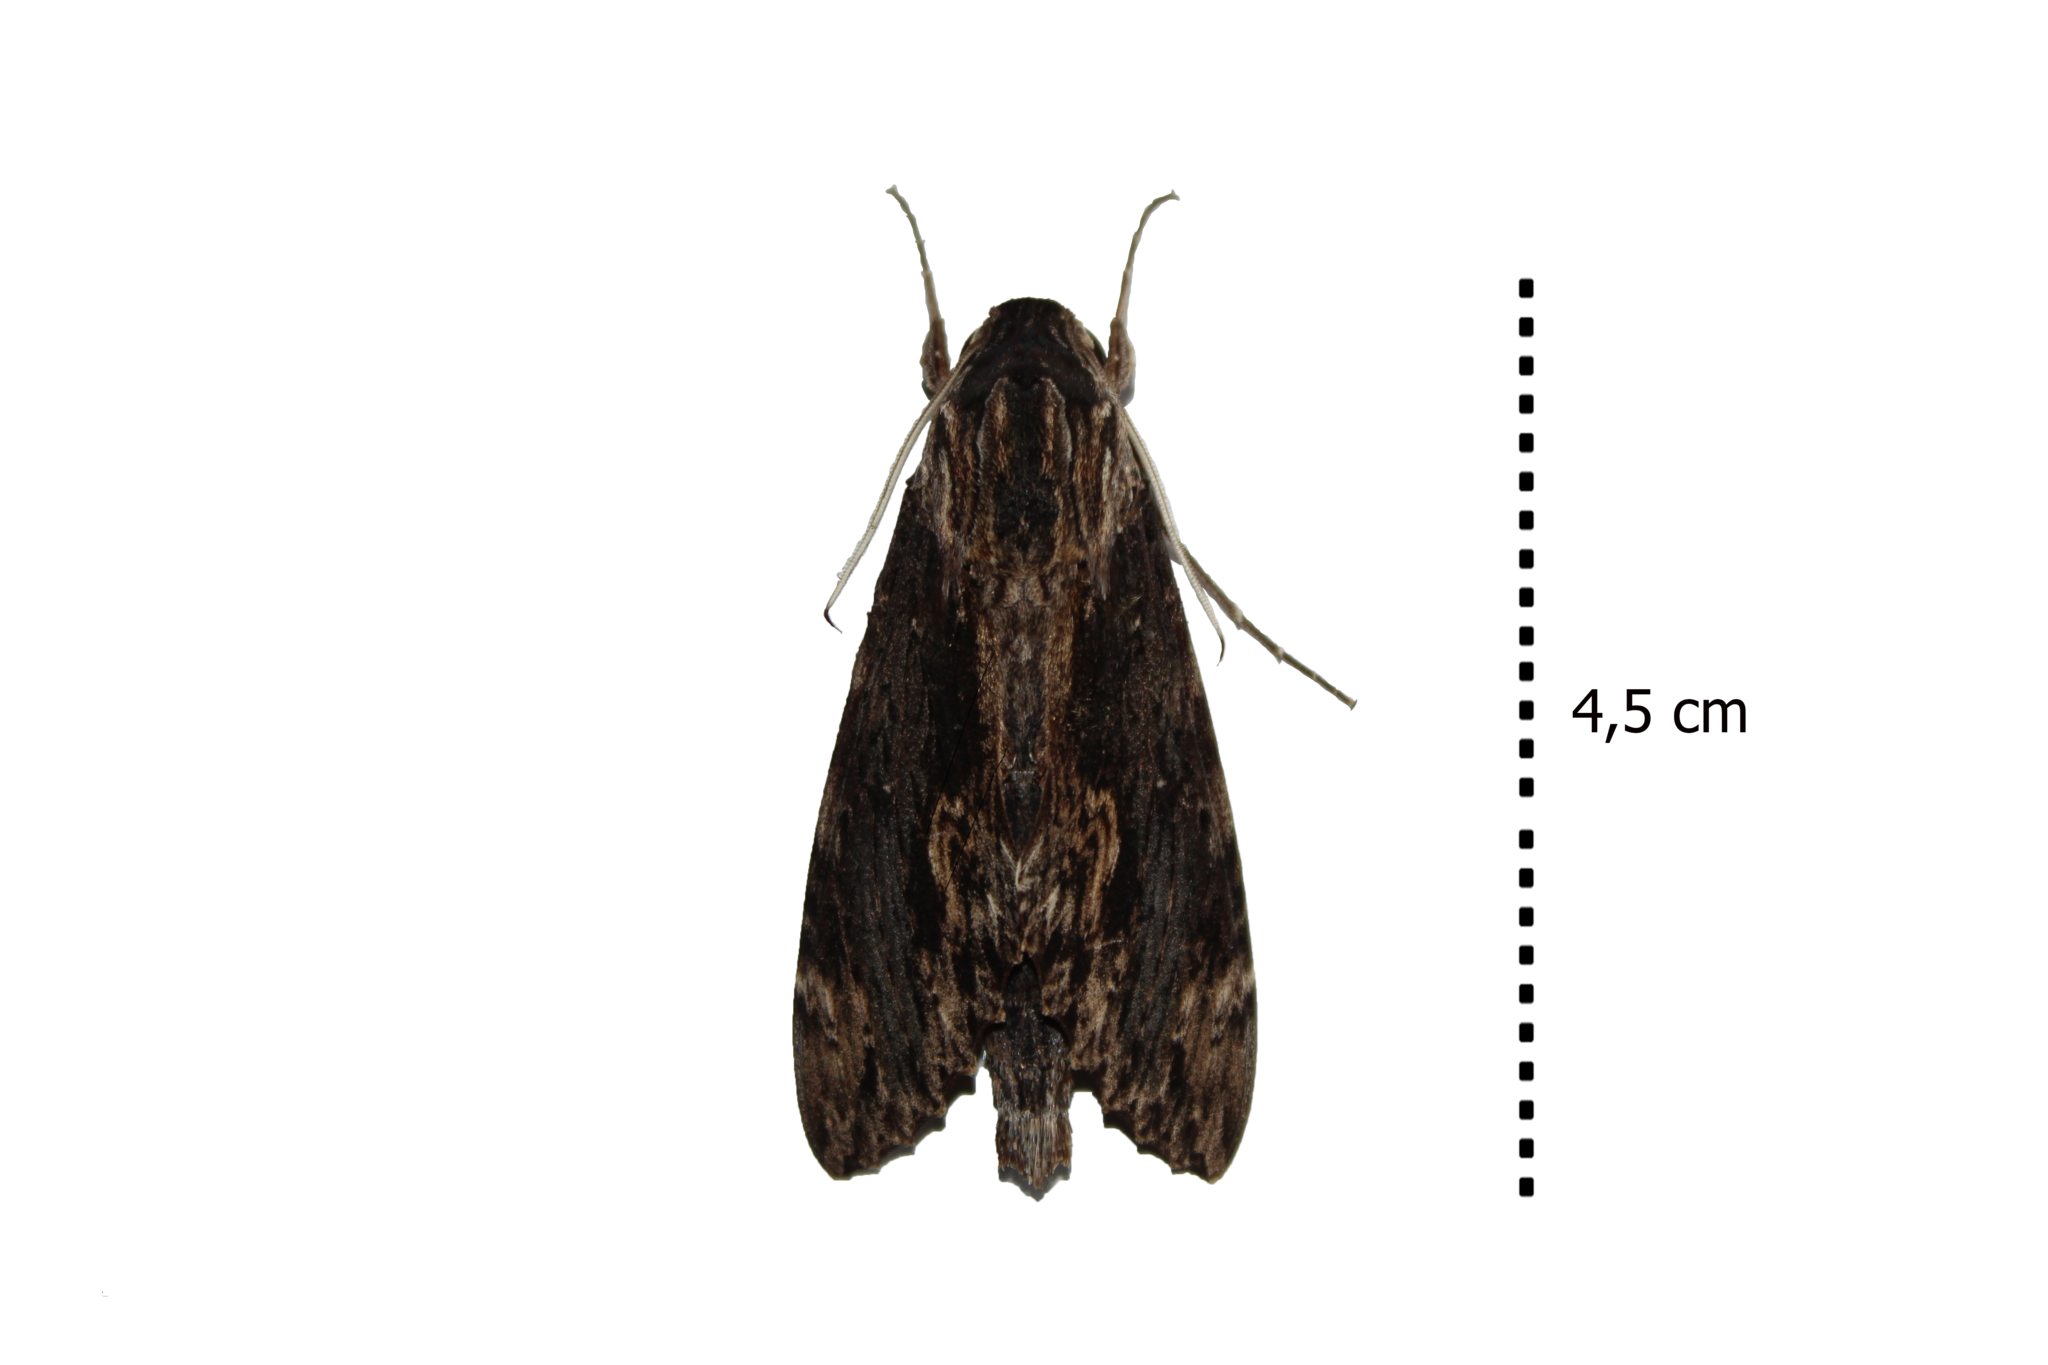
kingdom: Animalia
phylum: Arthropoda
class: Insecta
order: Lepidoptera
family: Sphingidae
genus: Erinnyis
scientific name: Erinnyis crameri
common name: Cramer's sphinx
